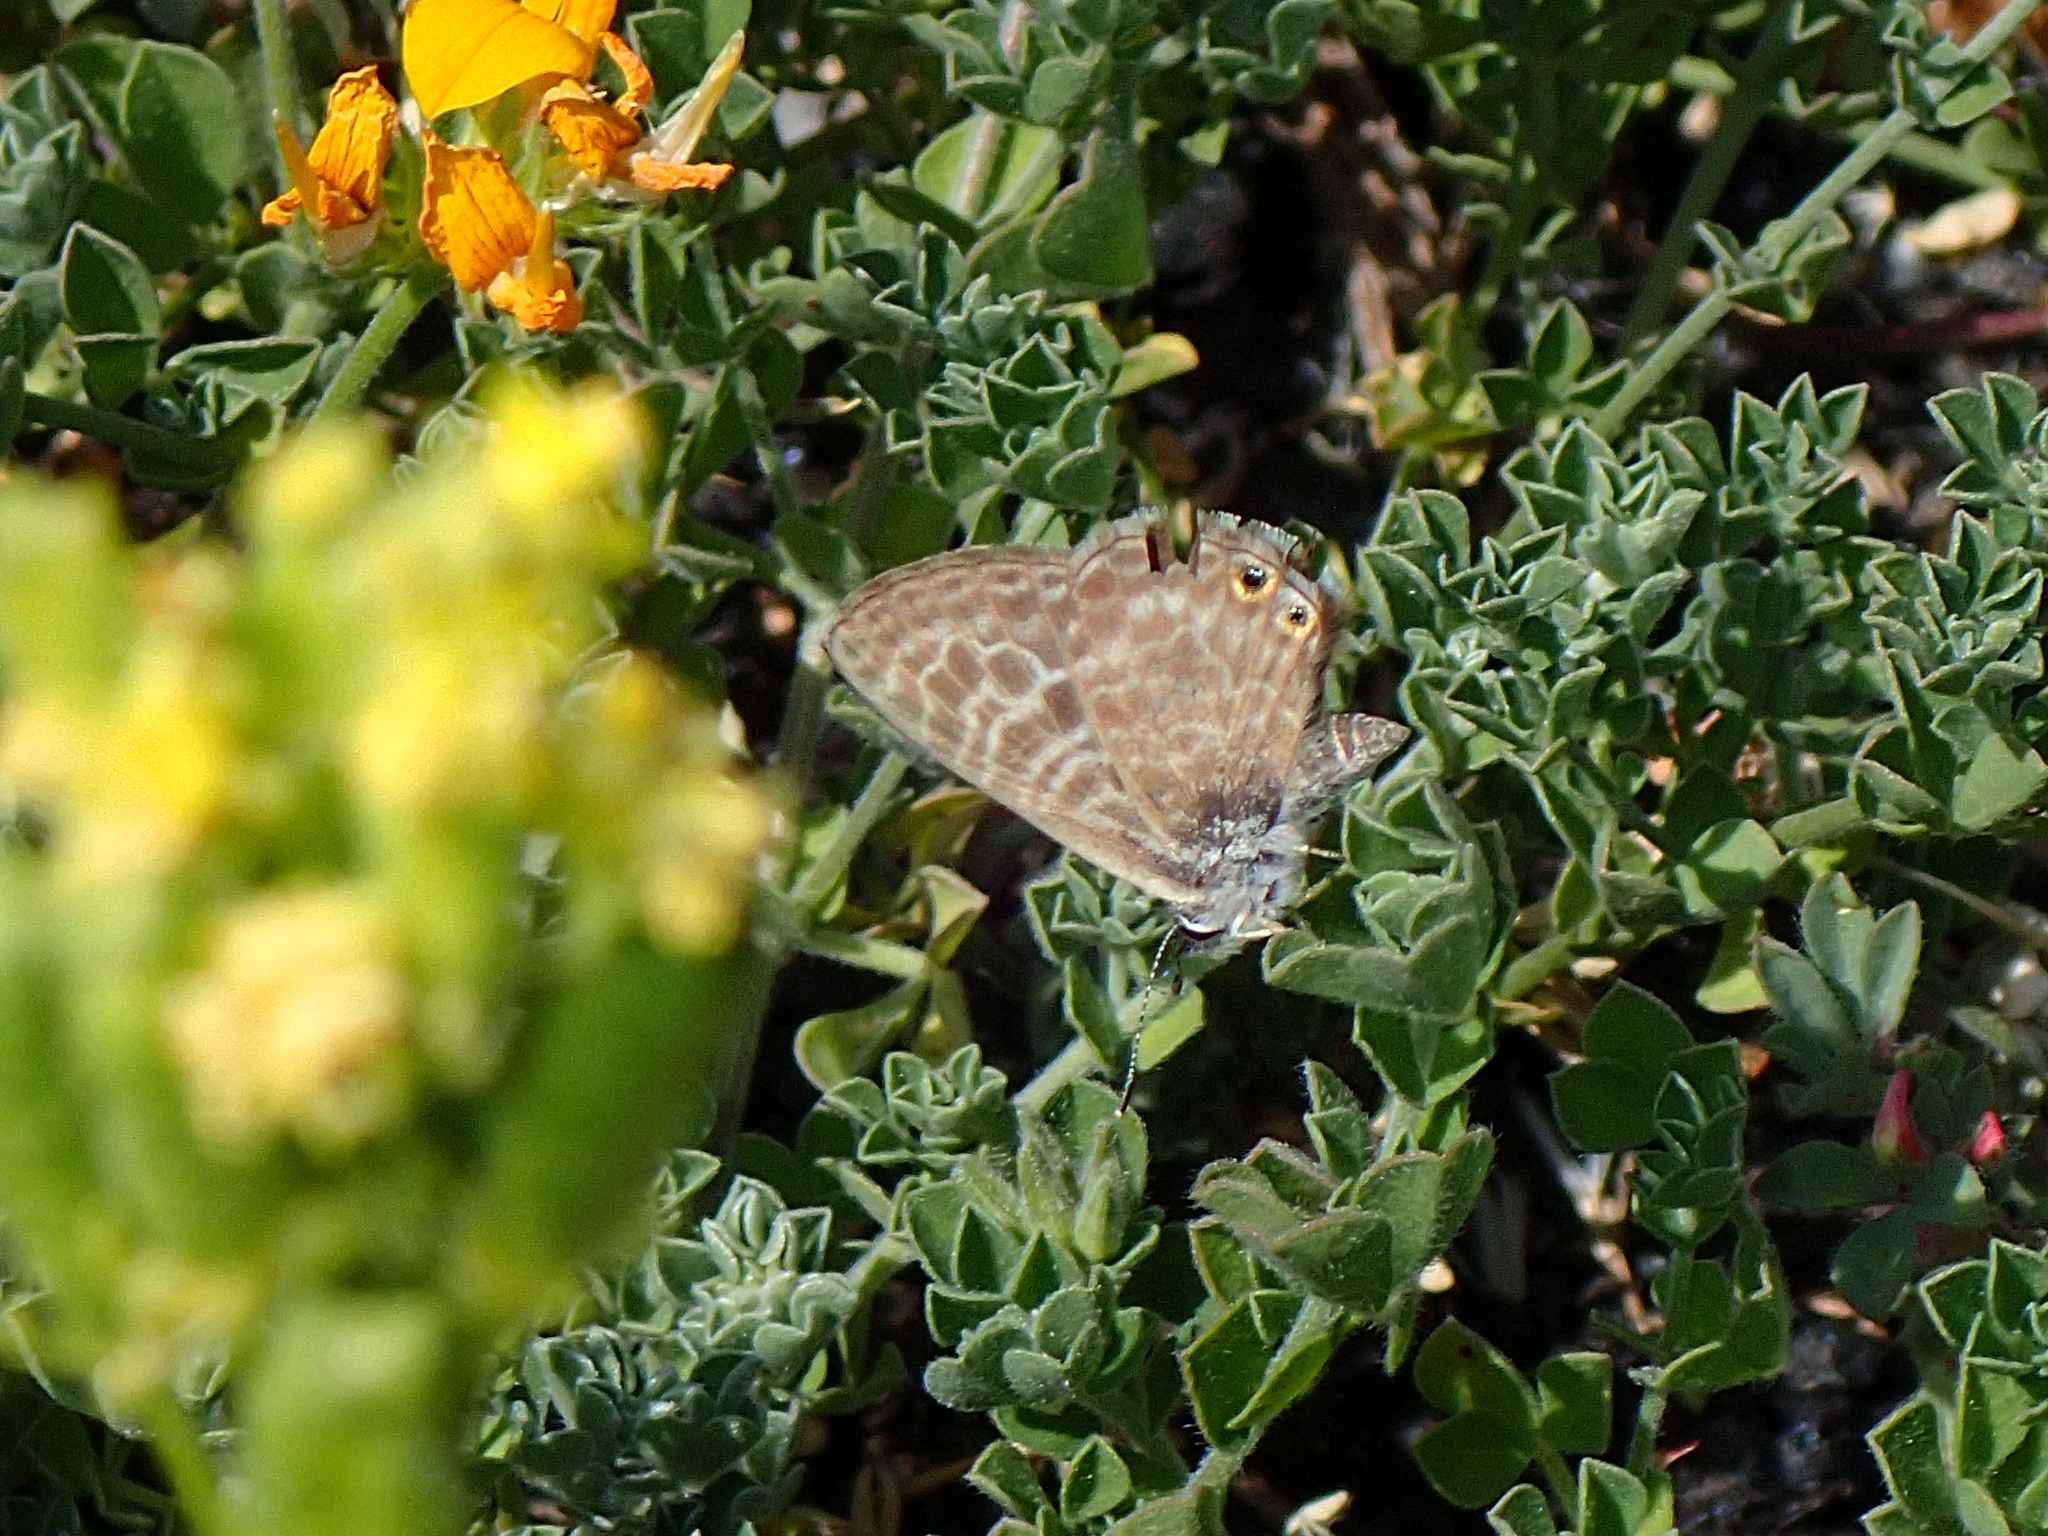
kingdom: Animalia
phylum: Arthropoda
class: Insecta
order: Lepidoptera
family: Lycaenidae
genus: Leptotes
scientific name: Leptotes pirithous
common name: Lang's short-tailed blue
